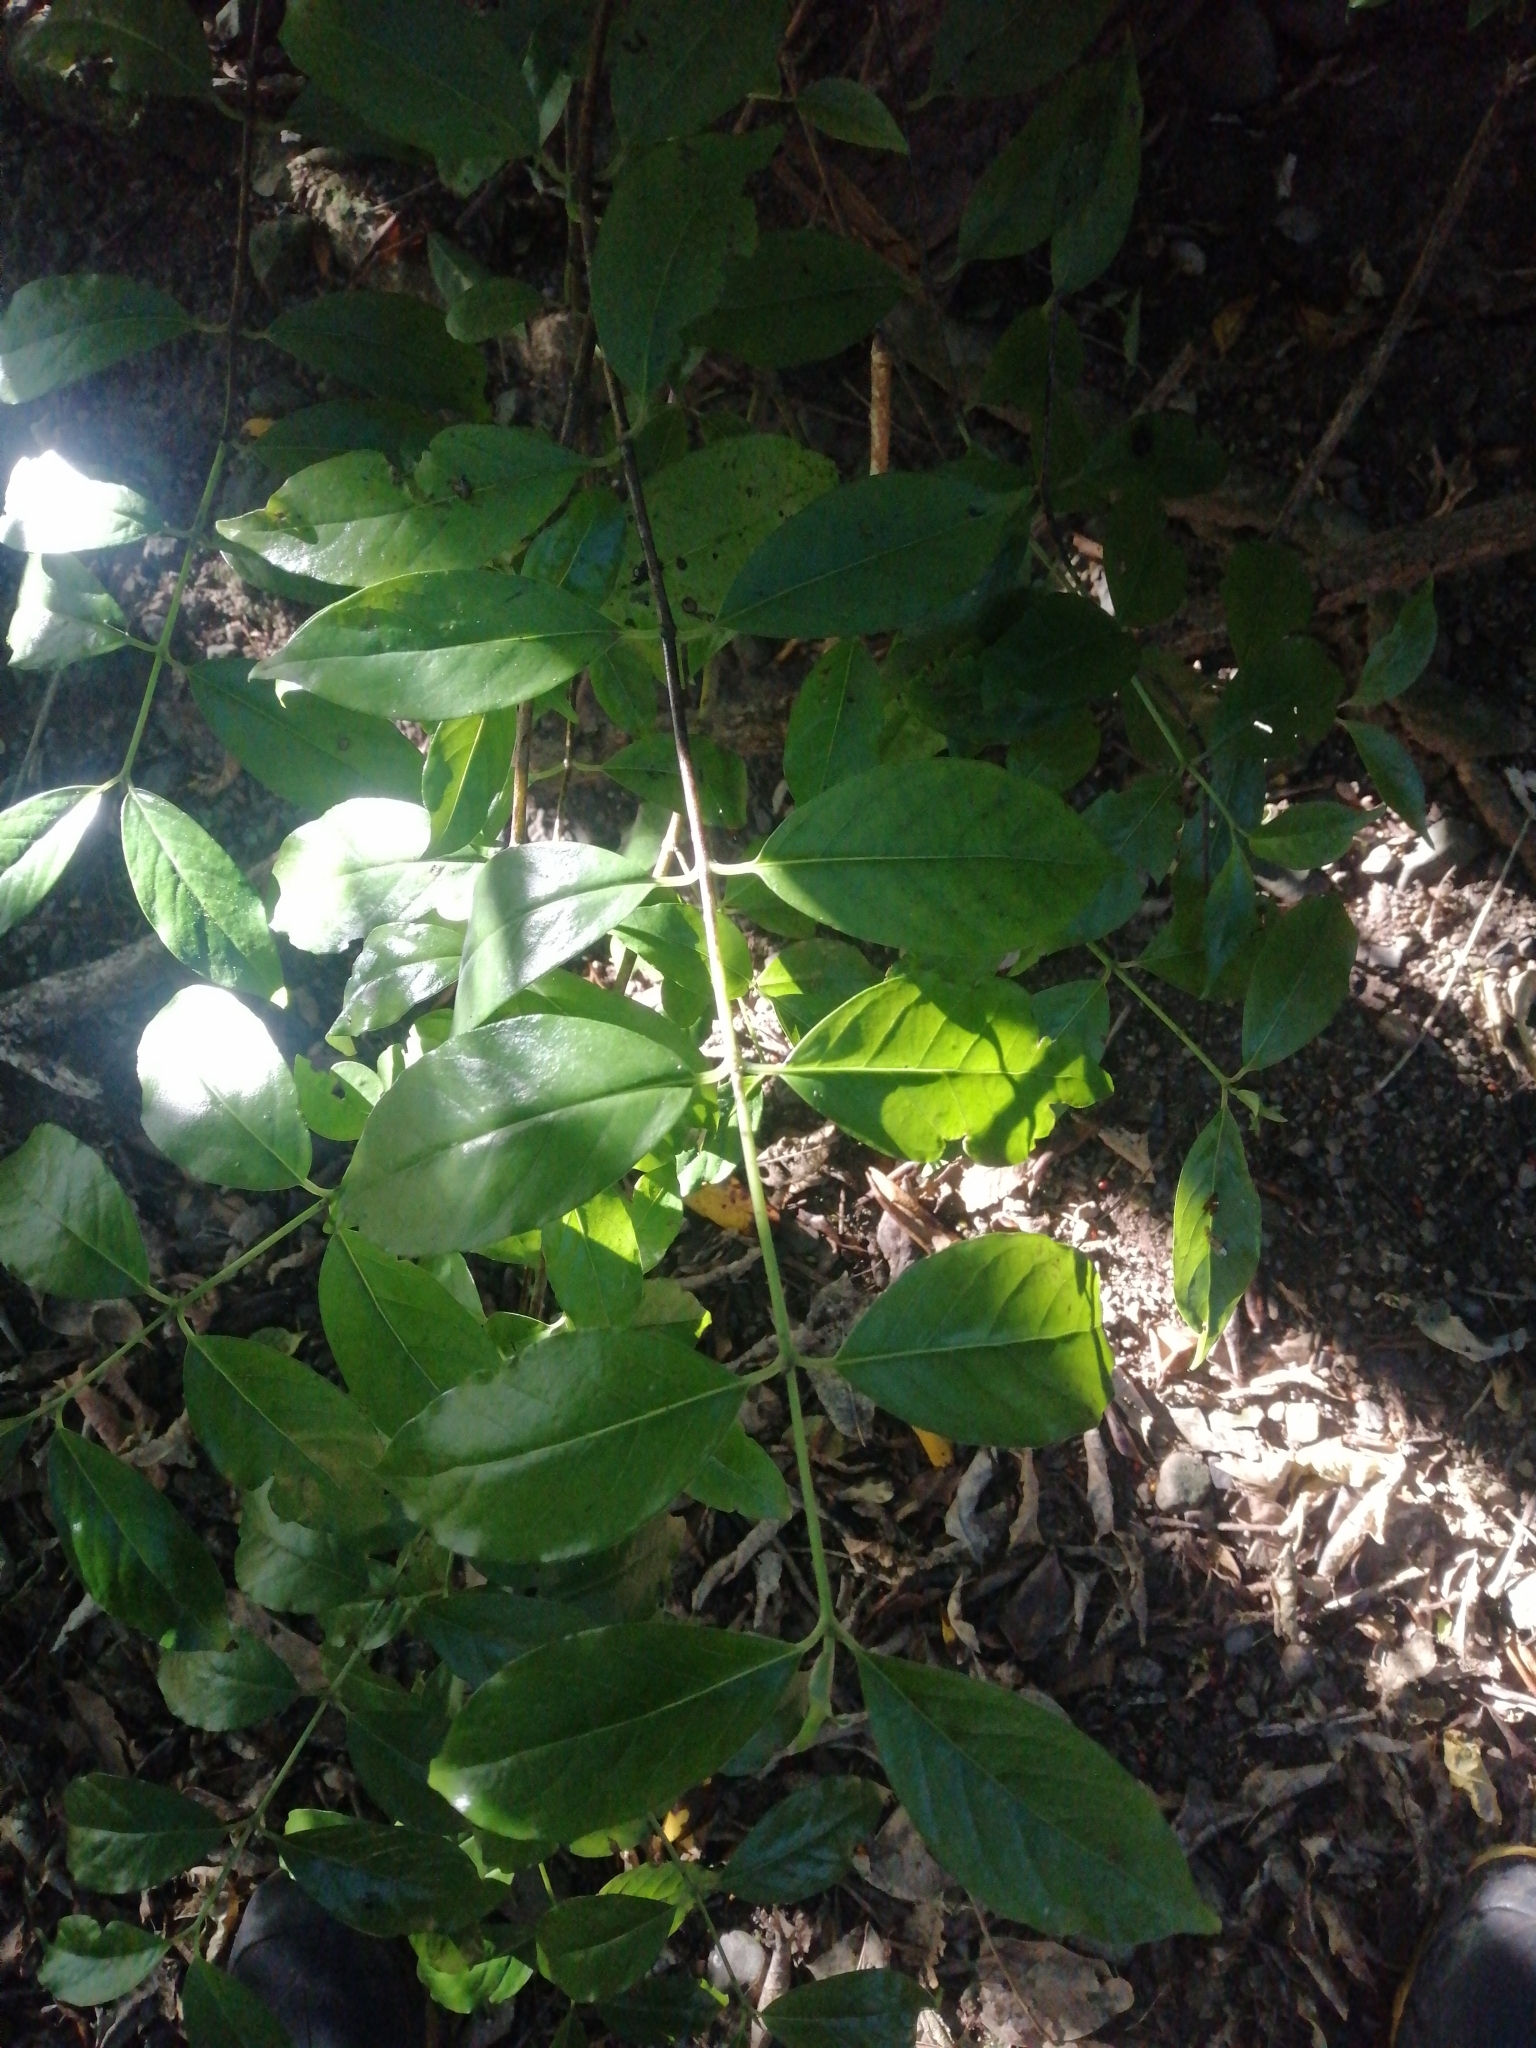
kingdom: Plantae
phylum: Tracheophyta
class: Magnoliopsida
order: Gentianales
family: Loganiaceae
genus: Geniostoma
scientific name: Geniostoma ligustrifolium
